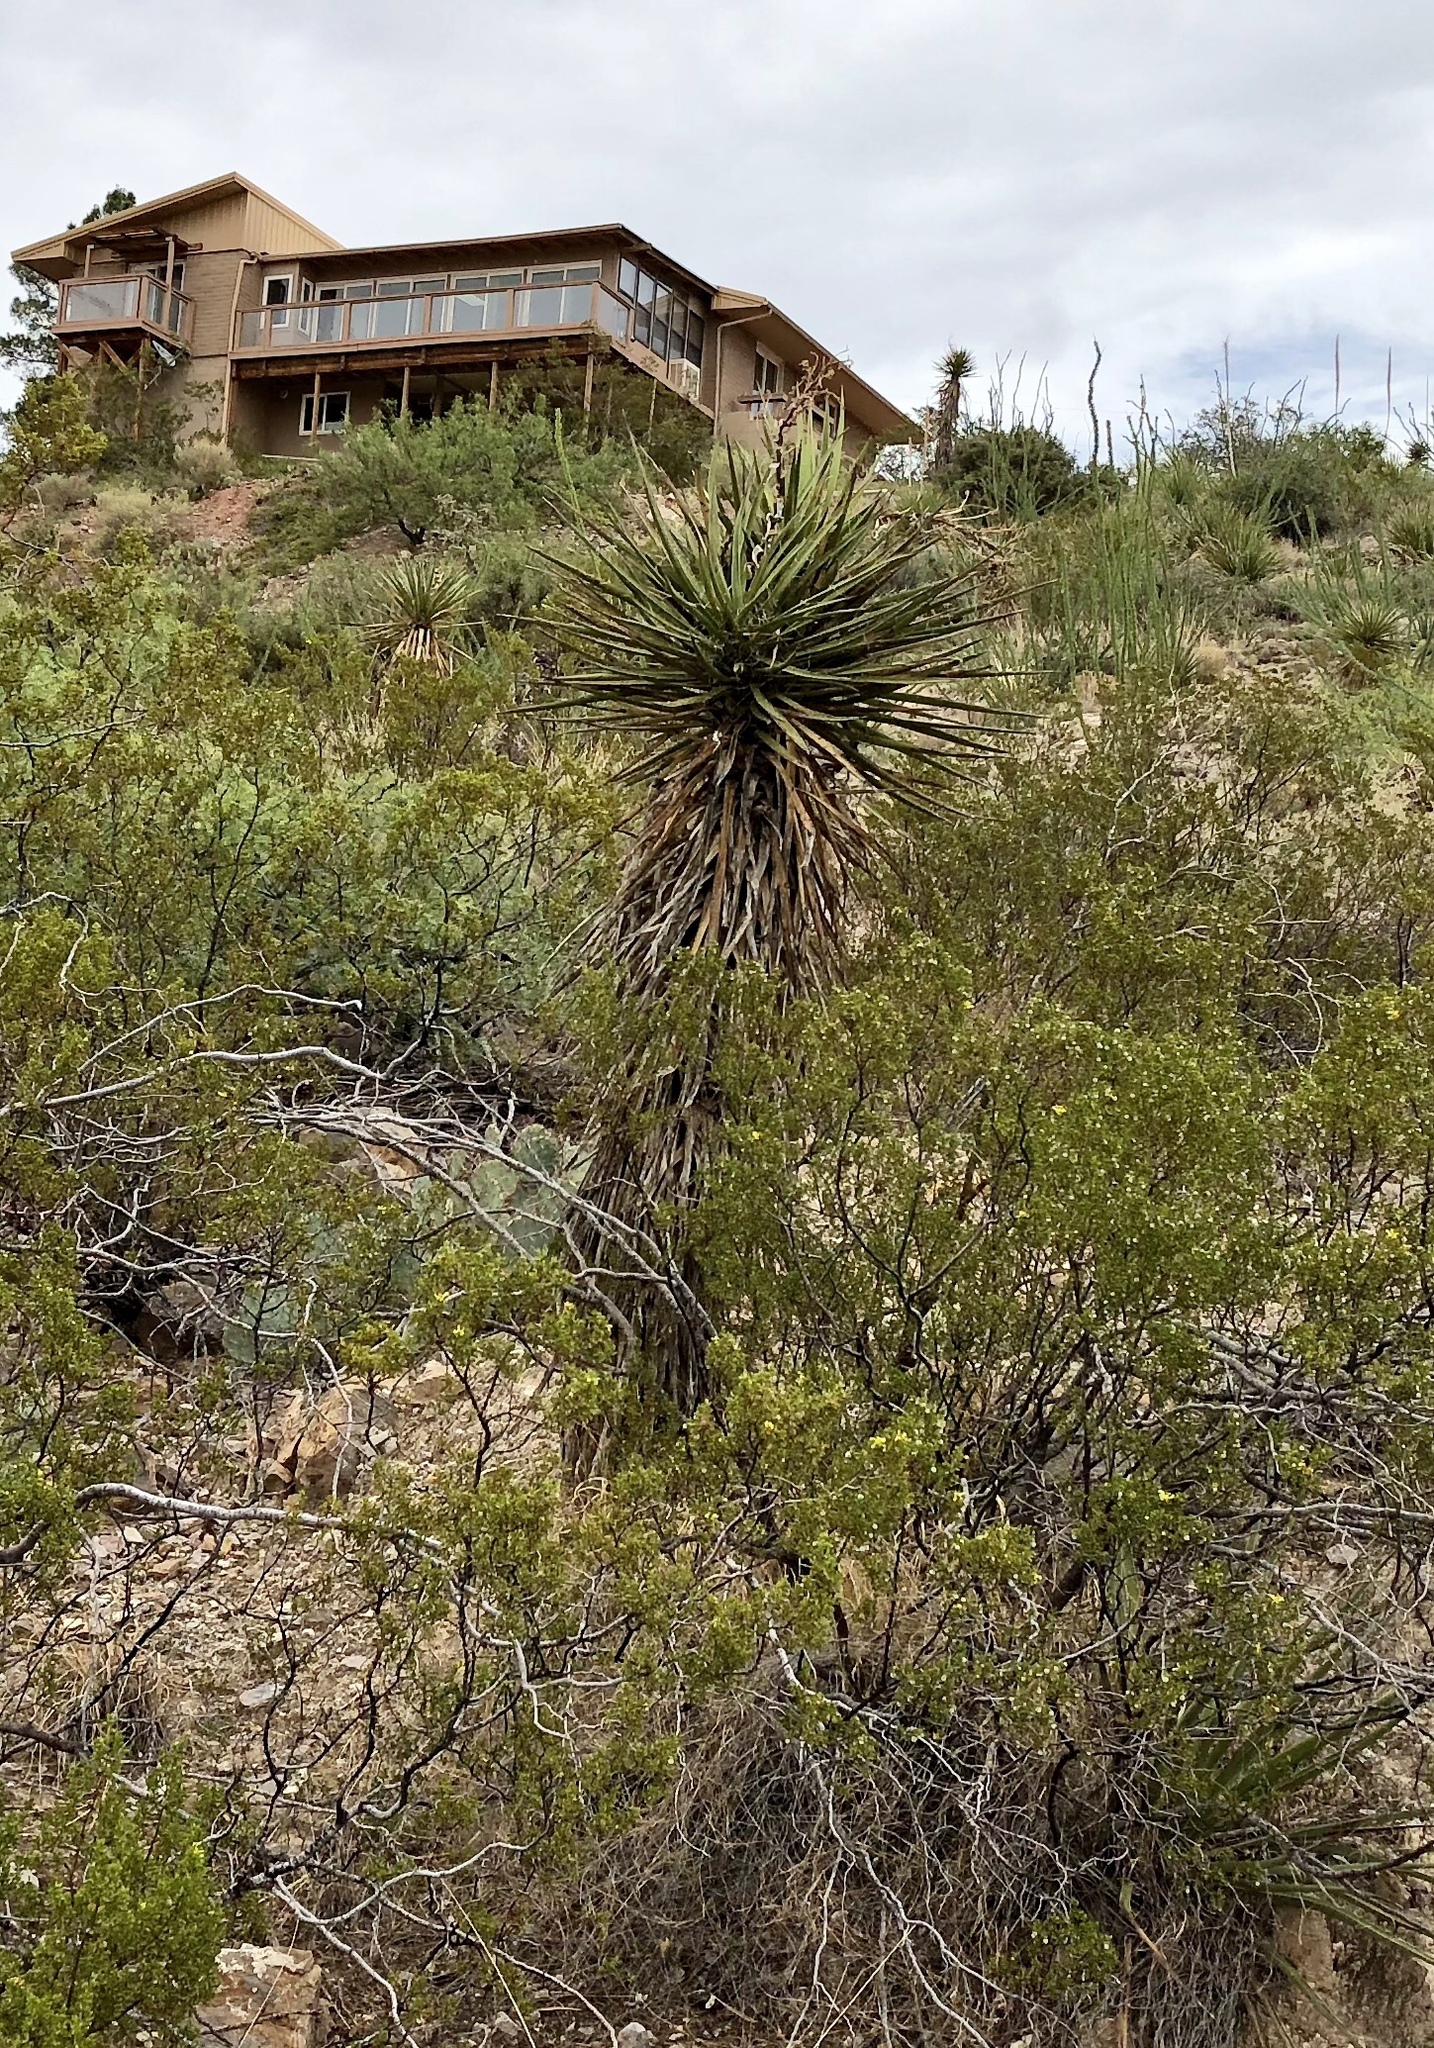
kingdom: Plantae
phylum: Tracheophyta
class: Liliopsida
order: Asparagales
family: Asparagaceae
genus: Yucca
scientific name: Yucca treculiana
